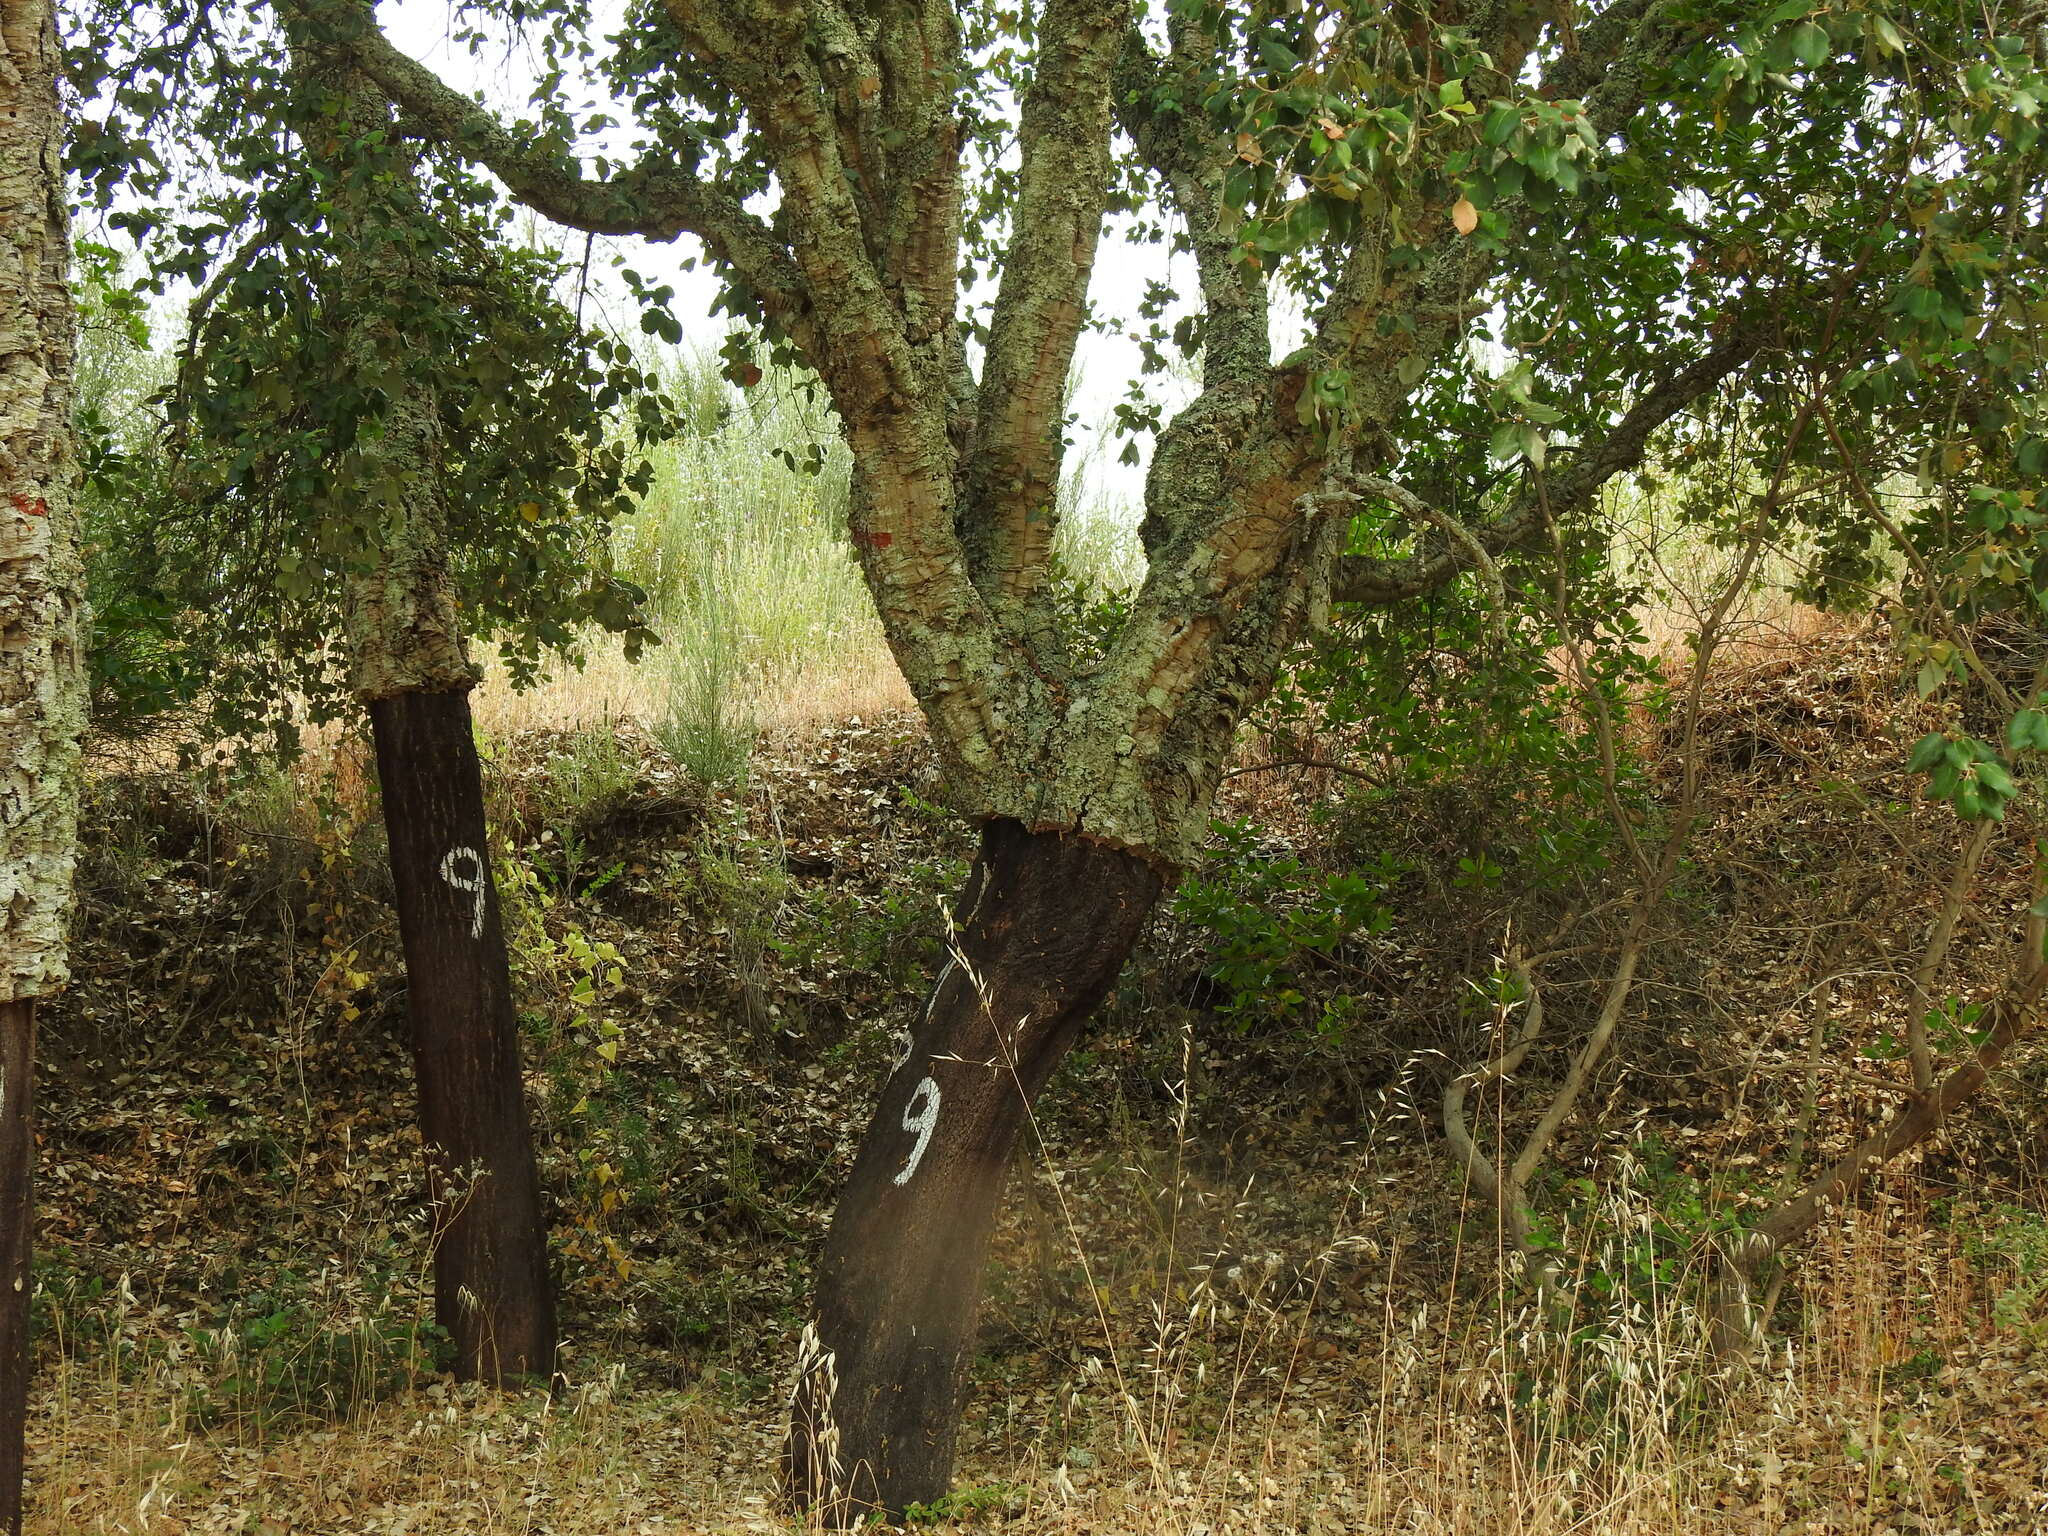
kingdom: Plantae
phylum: Tracheophyta
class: Magnoliopsida
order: Fagales
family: Fagaceae
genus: Quercus
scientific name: Quercus suber
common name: Cork oak
